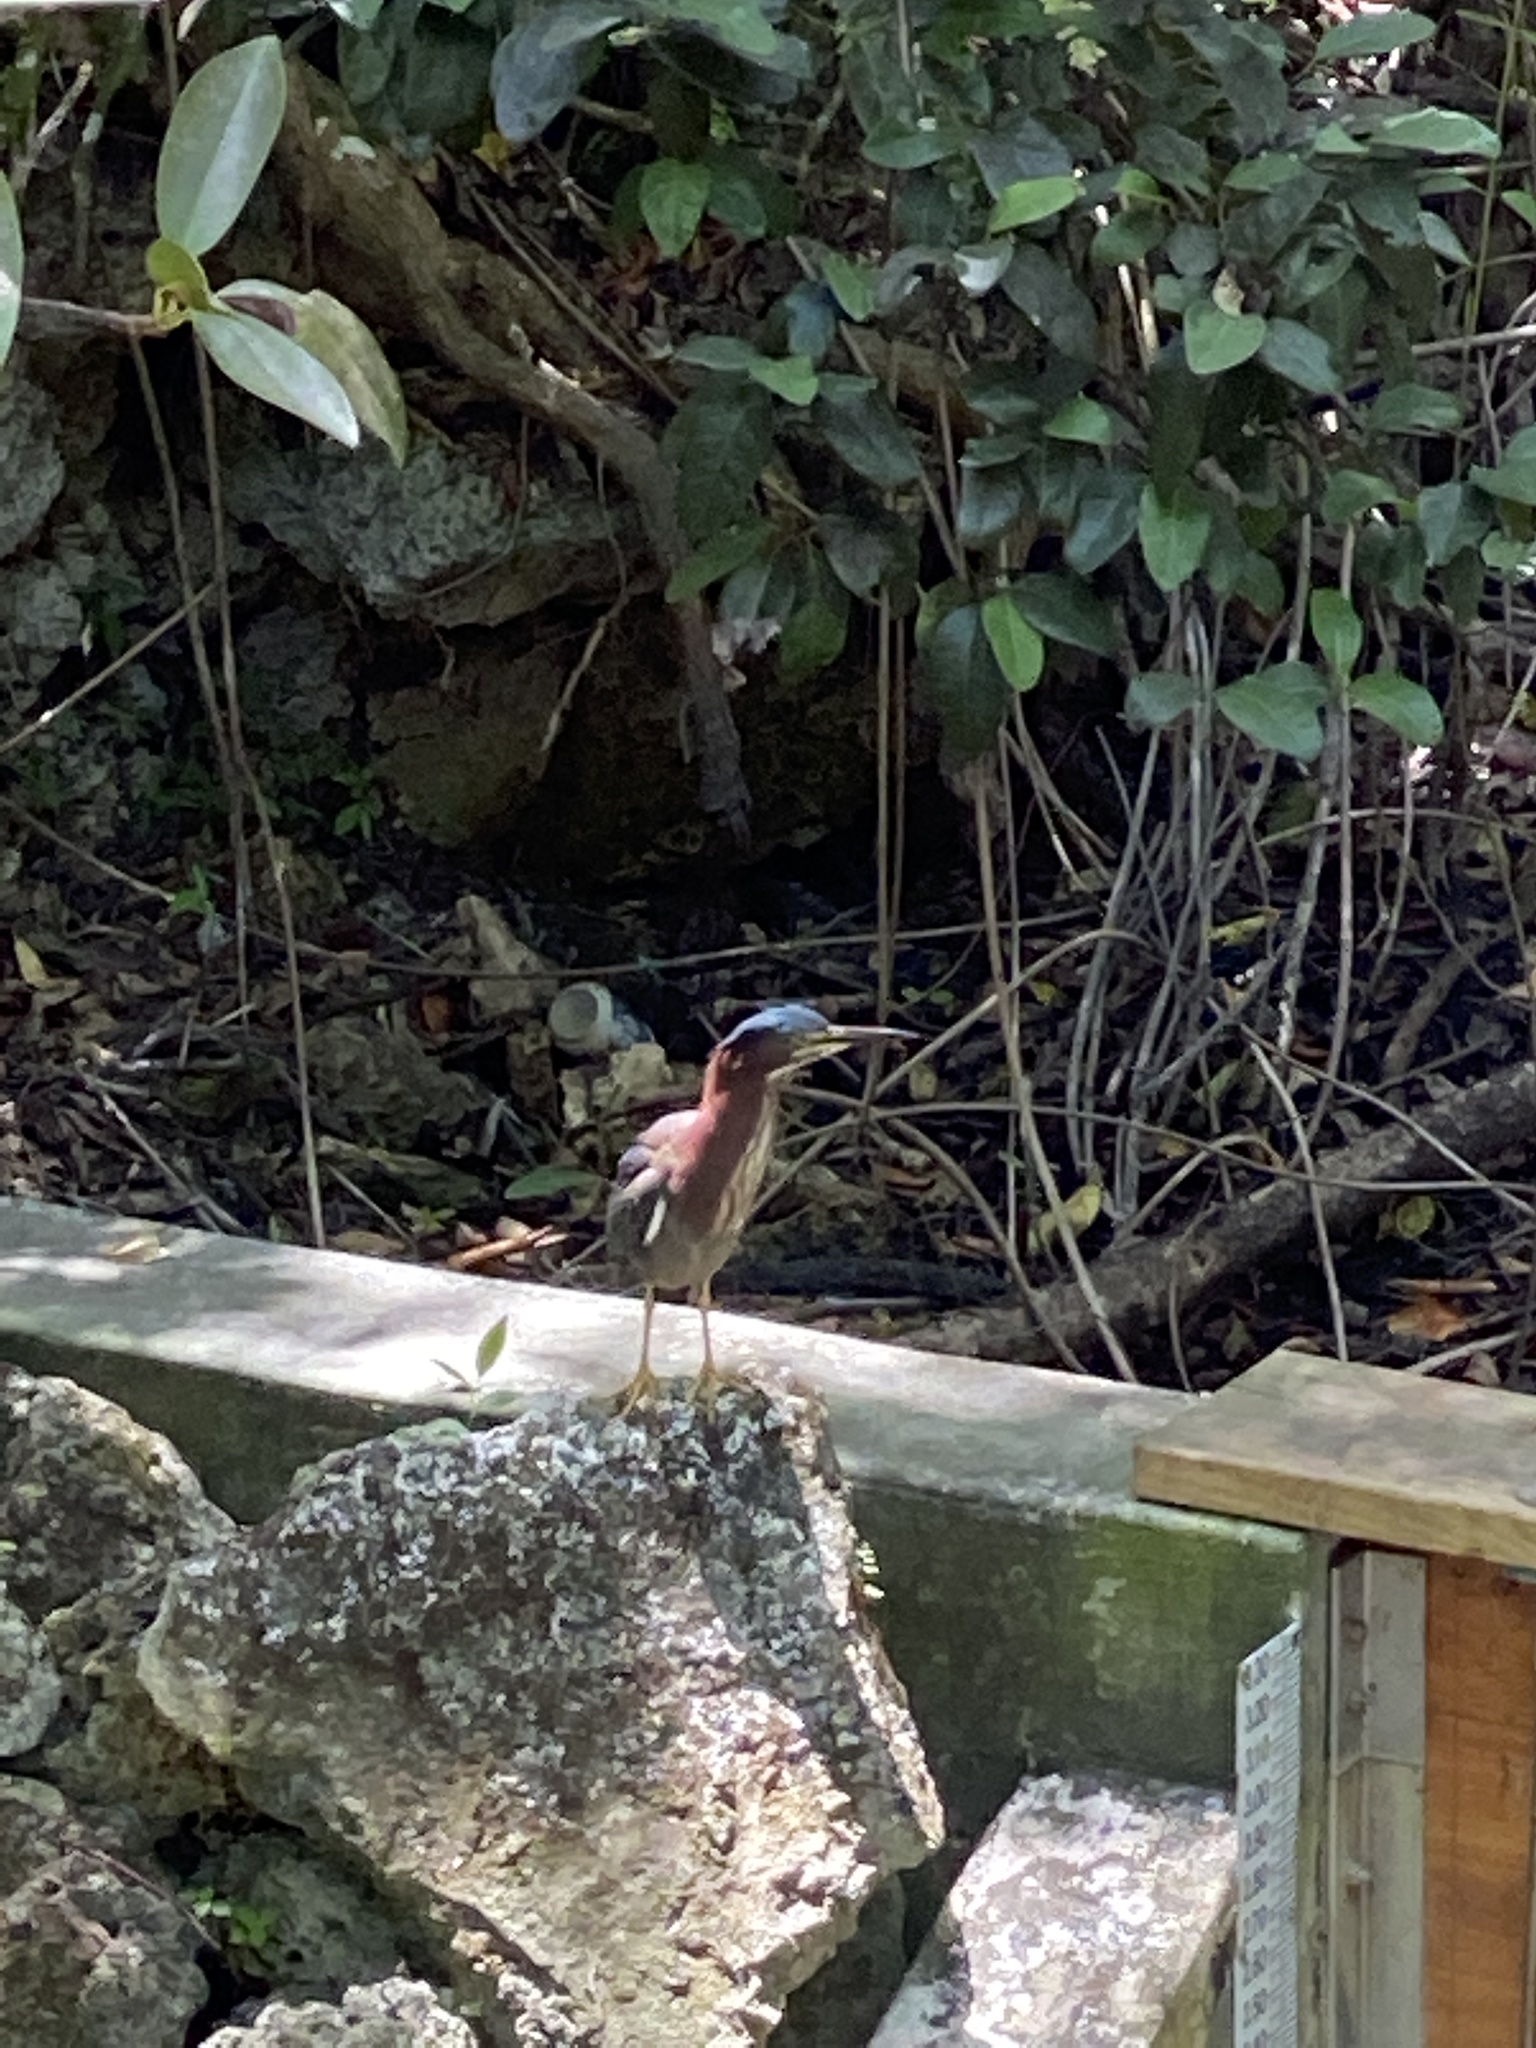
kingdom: Animalia
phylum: Chordata
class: Aves
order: Pelecaniformes
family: Ardeidae
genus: Butorides
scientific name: Butorides virescens
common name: Green heron
